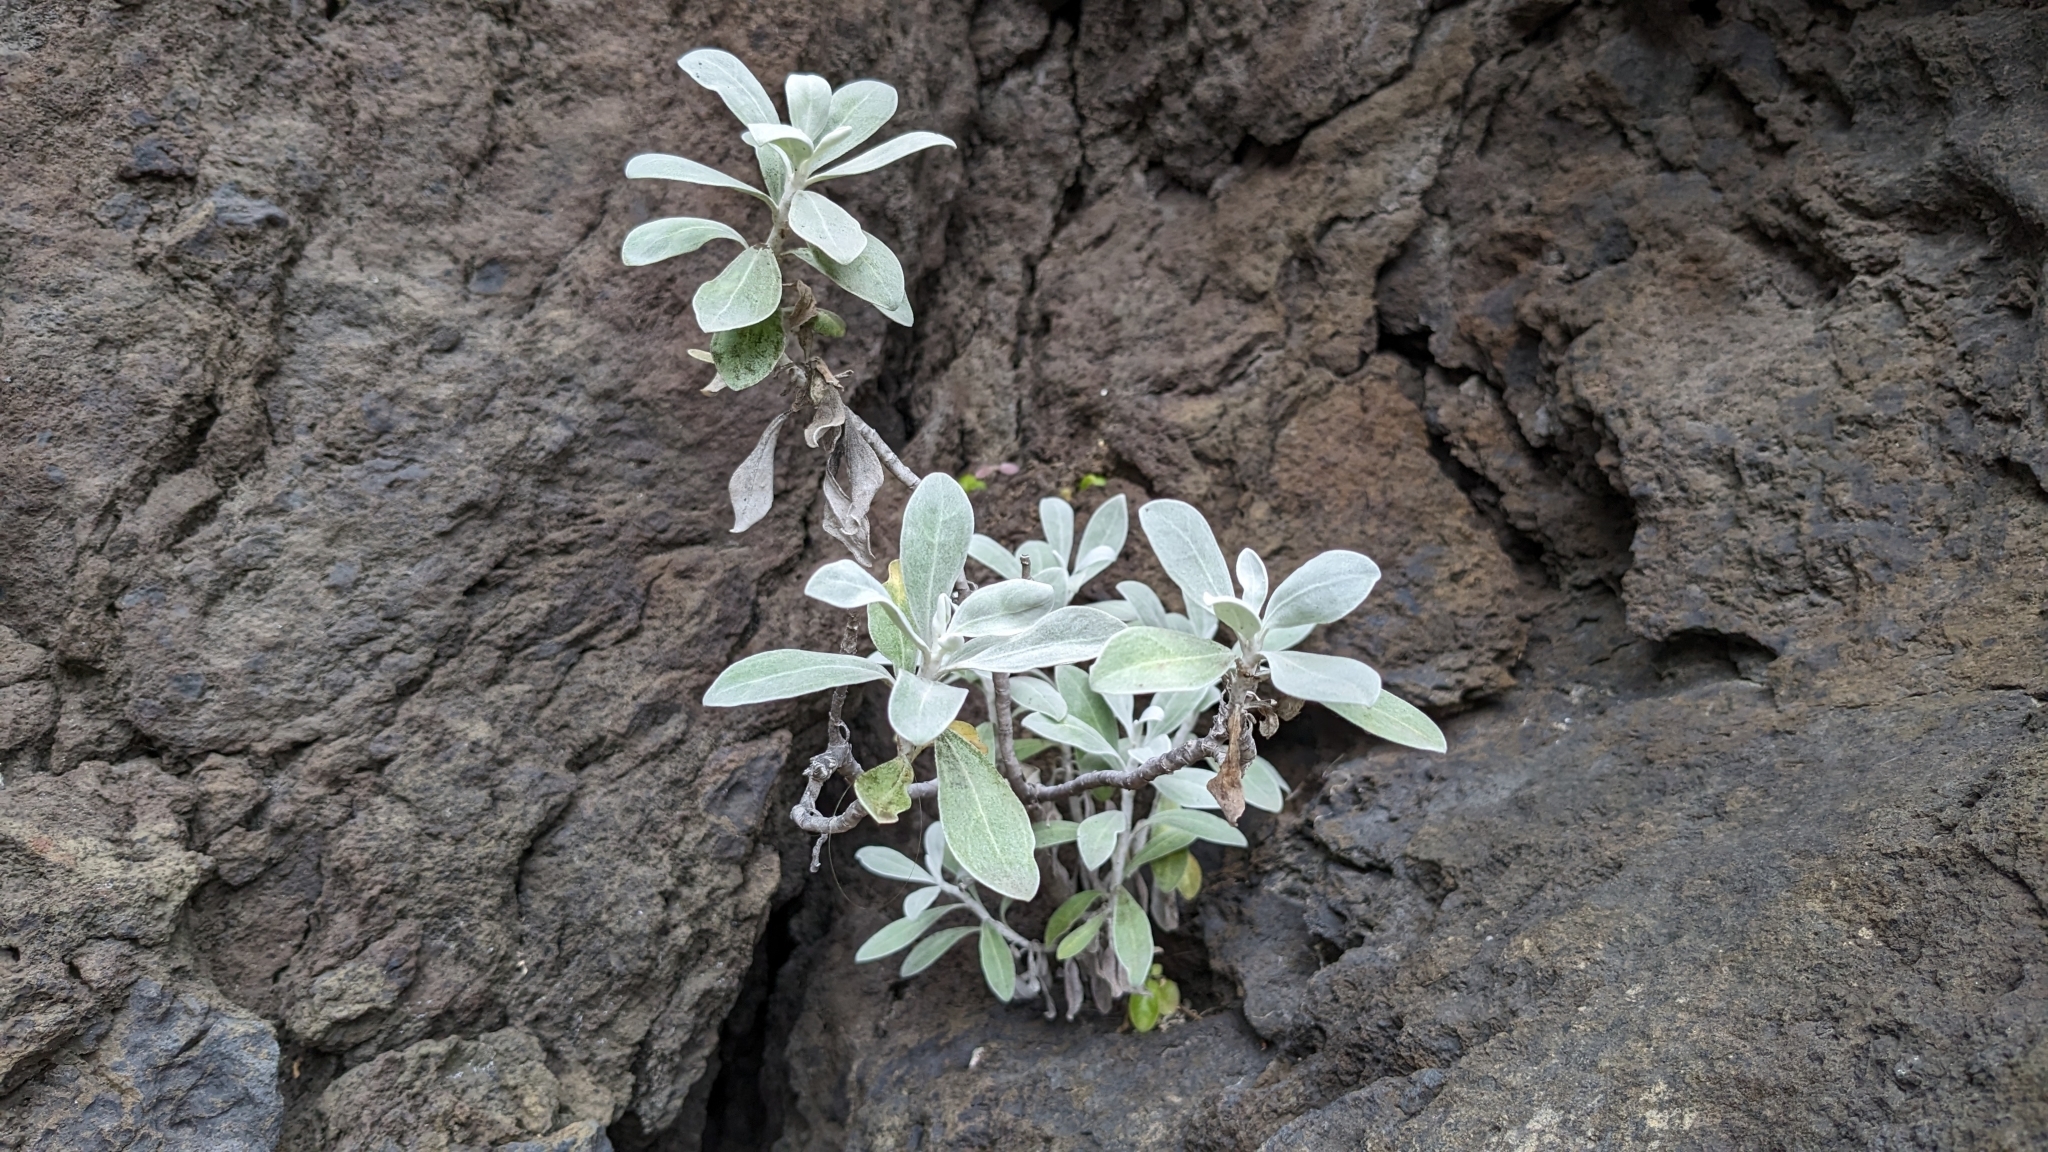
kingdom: Plantae
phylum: Tracheophyta
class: Magnoliopsida
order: Asterales
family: Asteraceae
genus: Helichrysum
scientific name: Helichrysum obconicum
